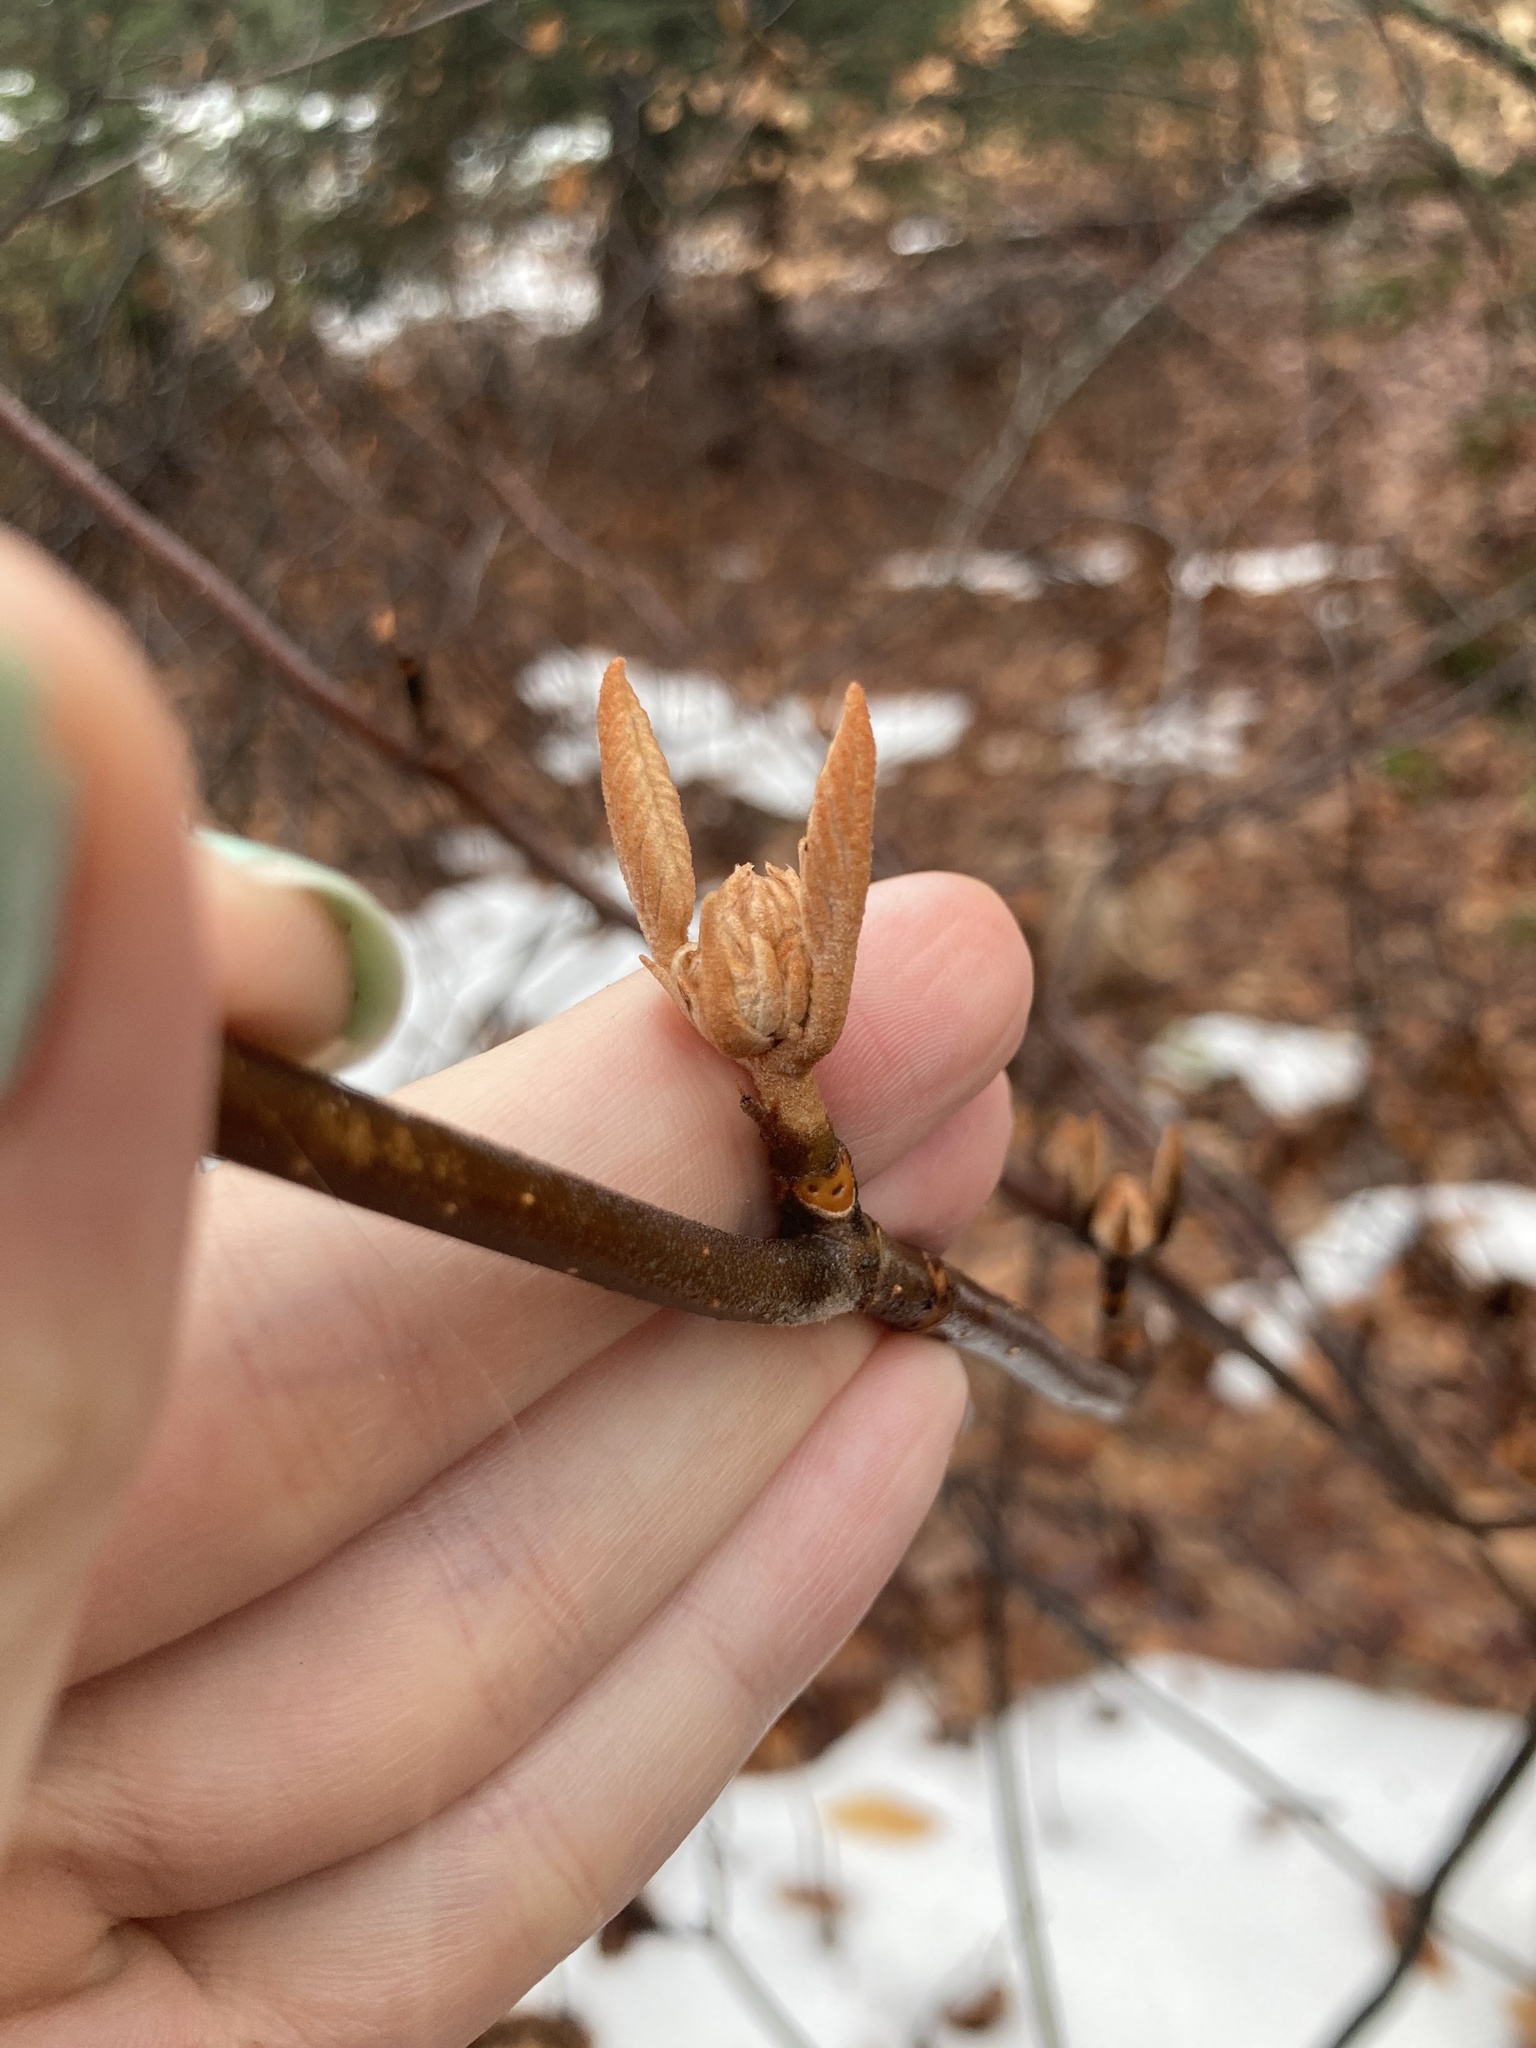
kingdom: Plantae
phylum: Tracheophyta
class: Magnoliopsida
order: Dipsacales
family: Viburnaceae
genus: Viburnum
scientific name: Viburnum lantanoides
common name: Hobblebush
